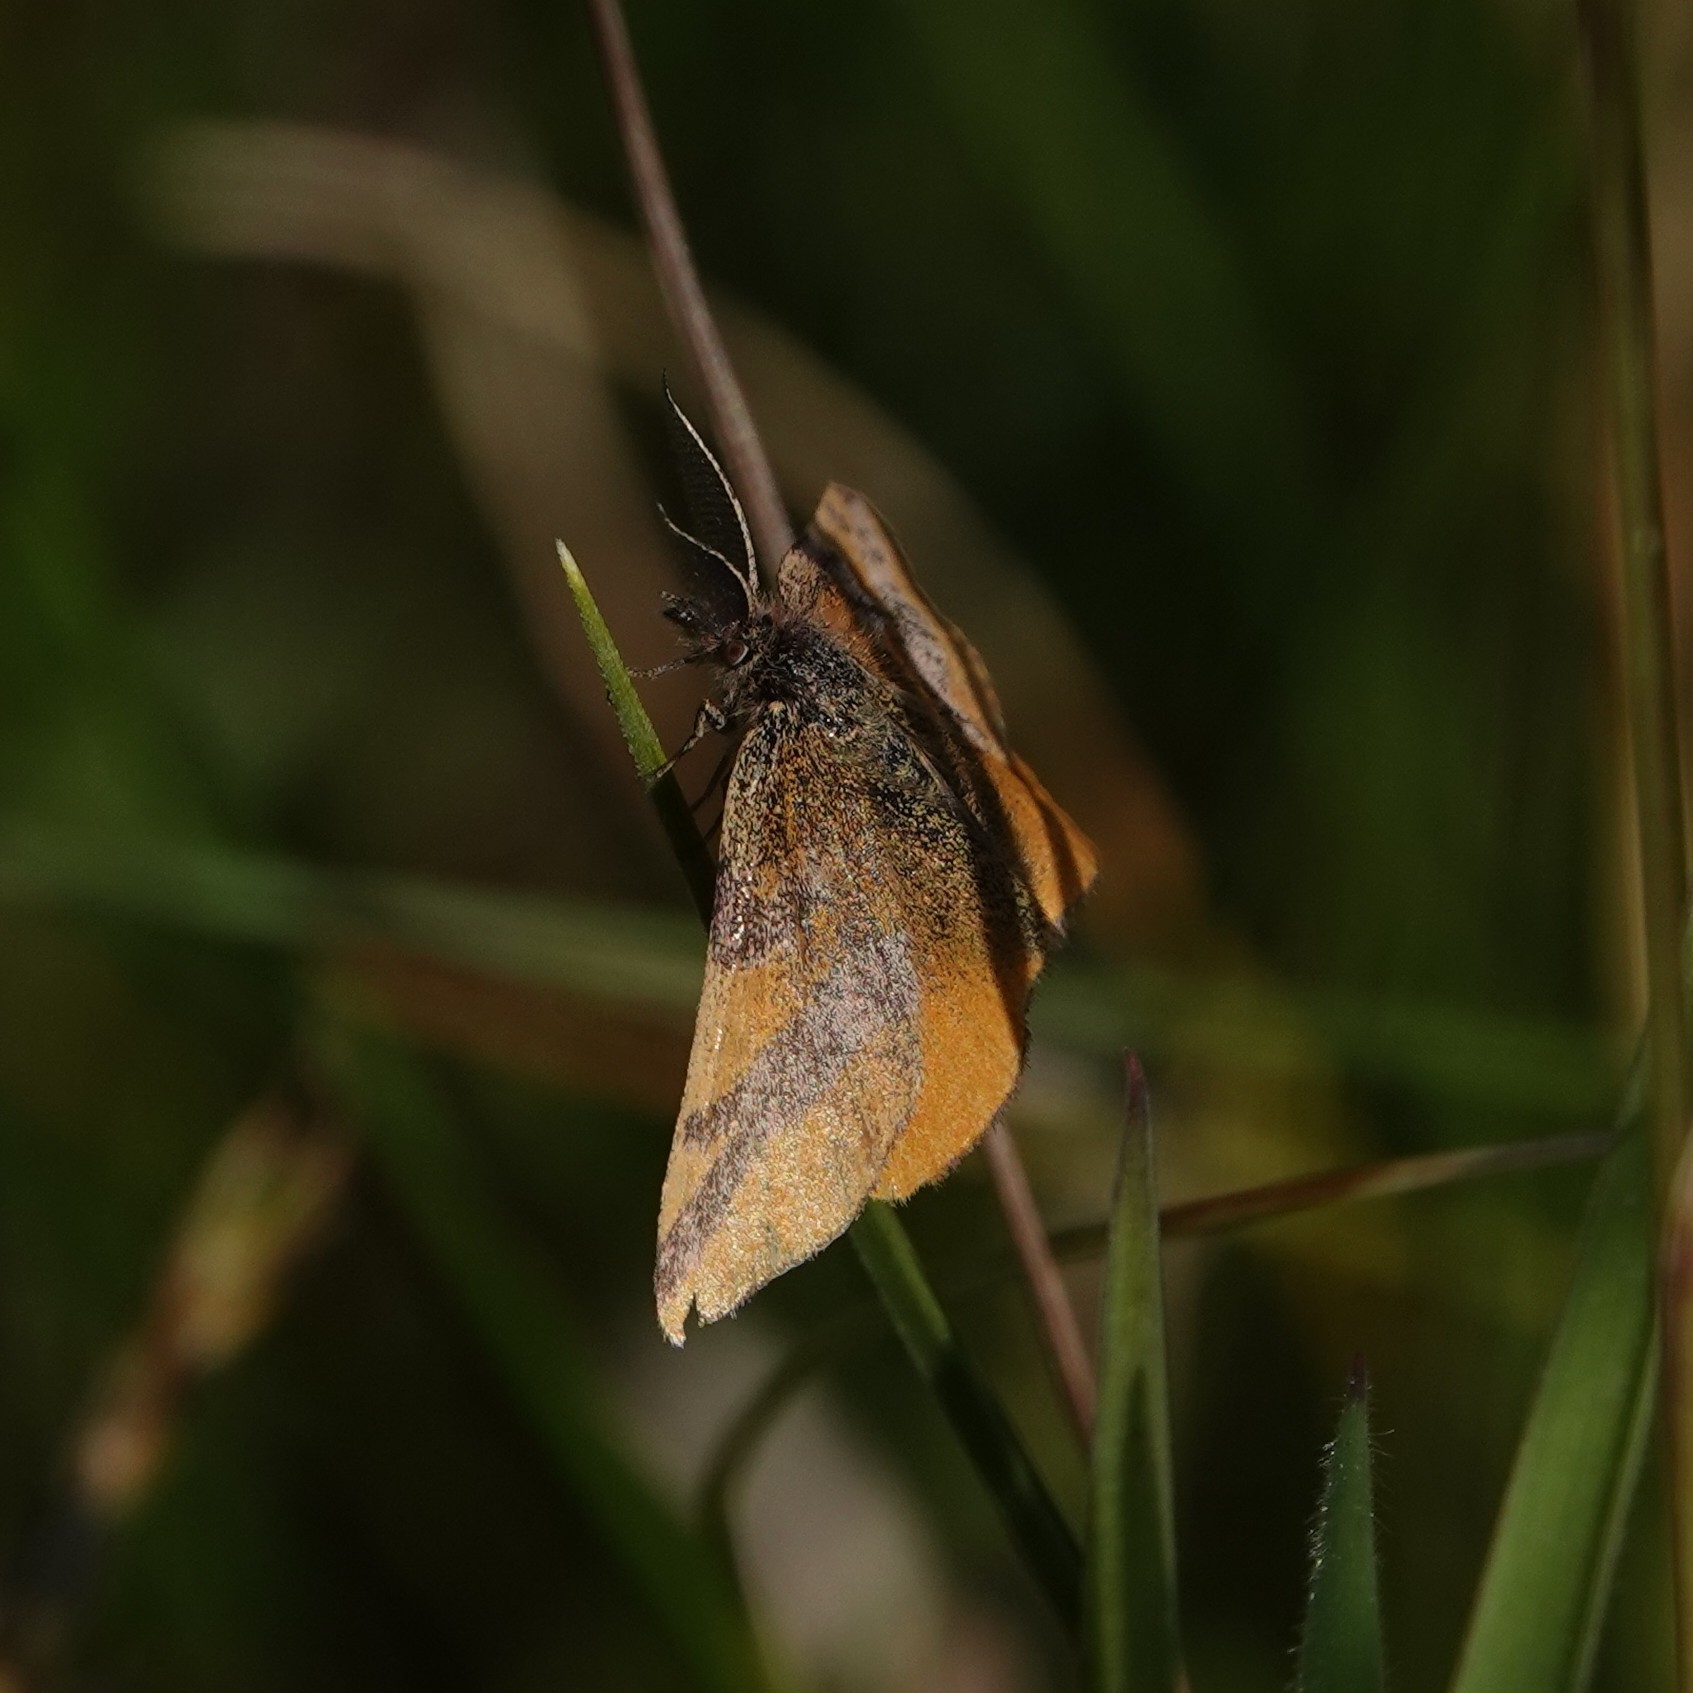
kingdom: Animalia
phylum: Arthropoda
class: Insecta
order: Lepidoptera
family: Geometridae
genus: Lythria
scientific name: Lythria cruentaria
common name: Purple-barred yellow
